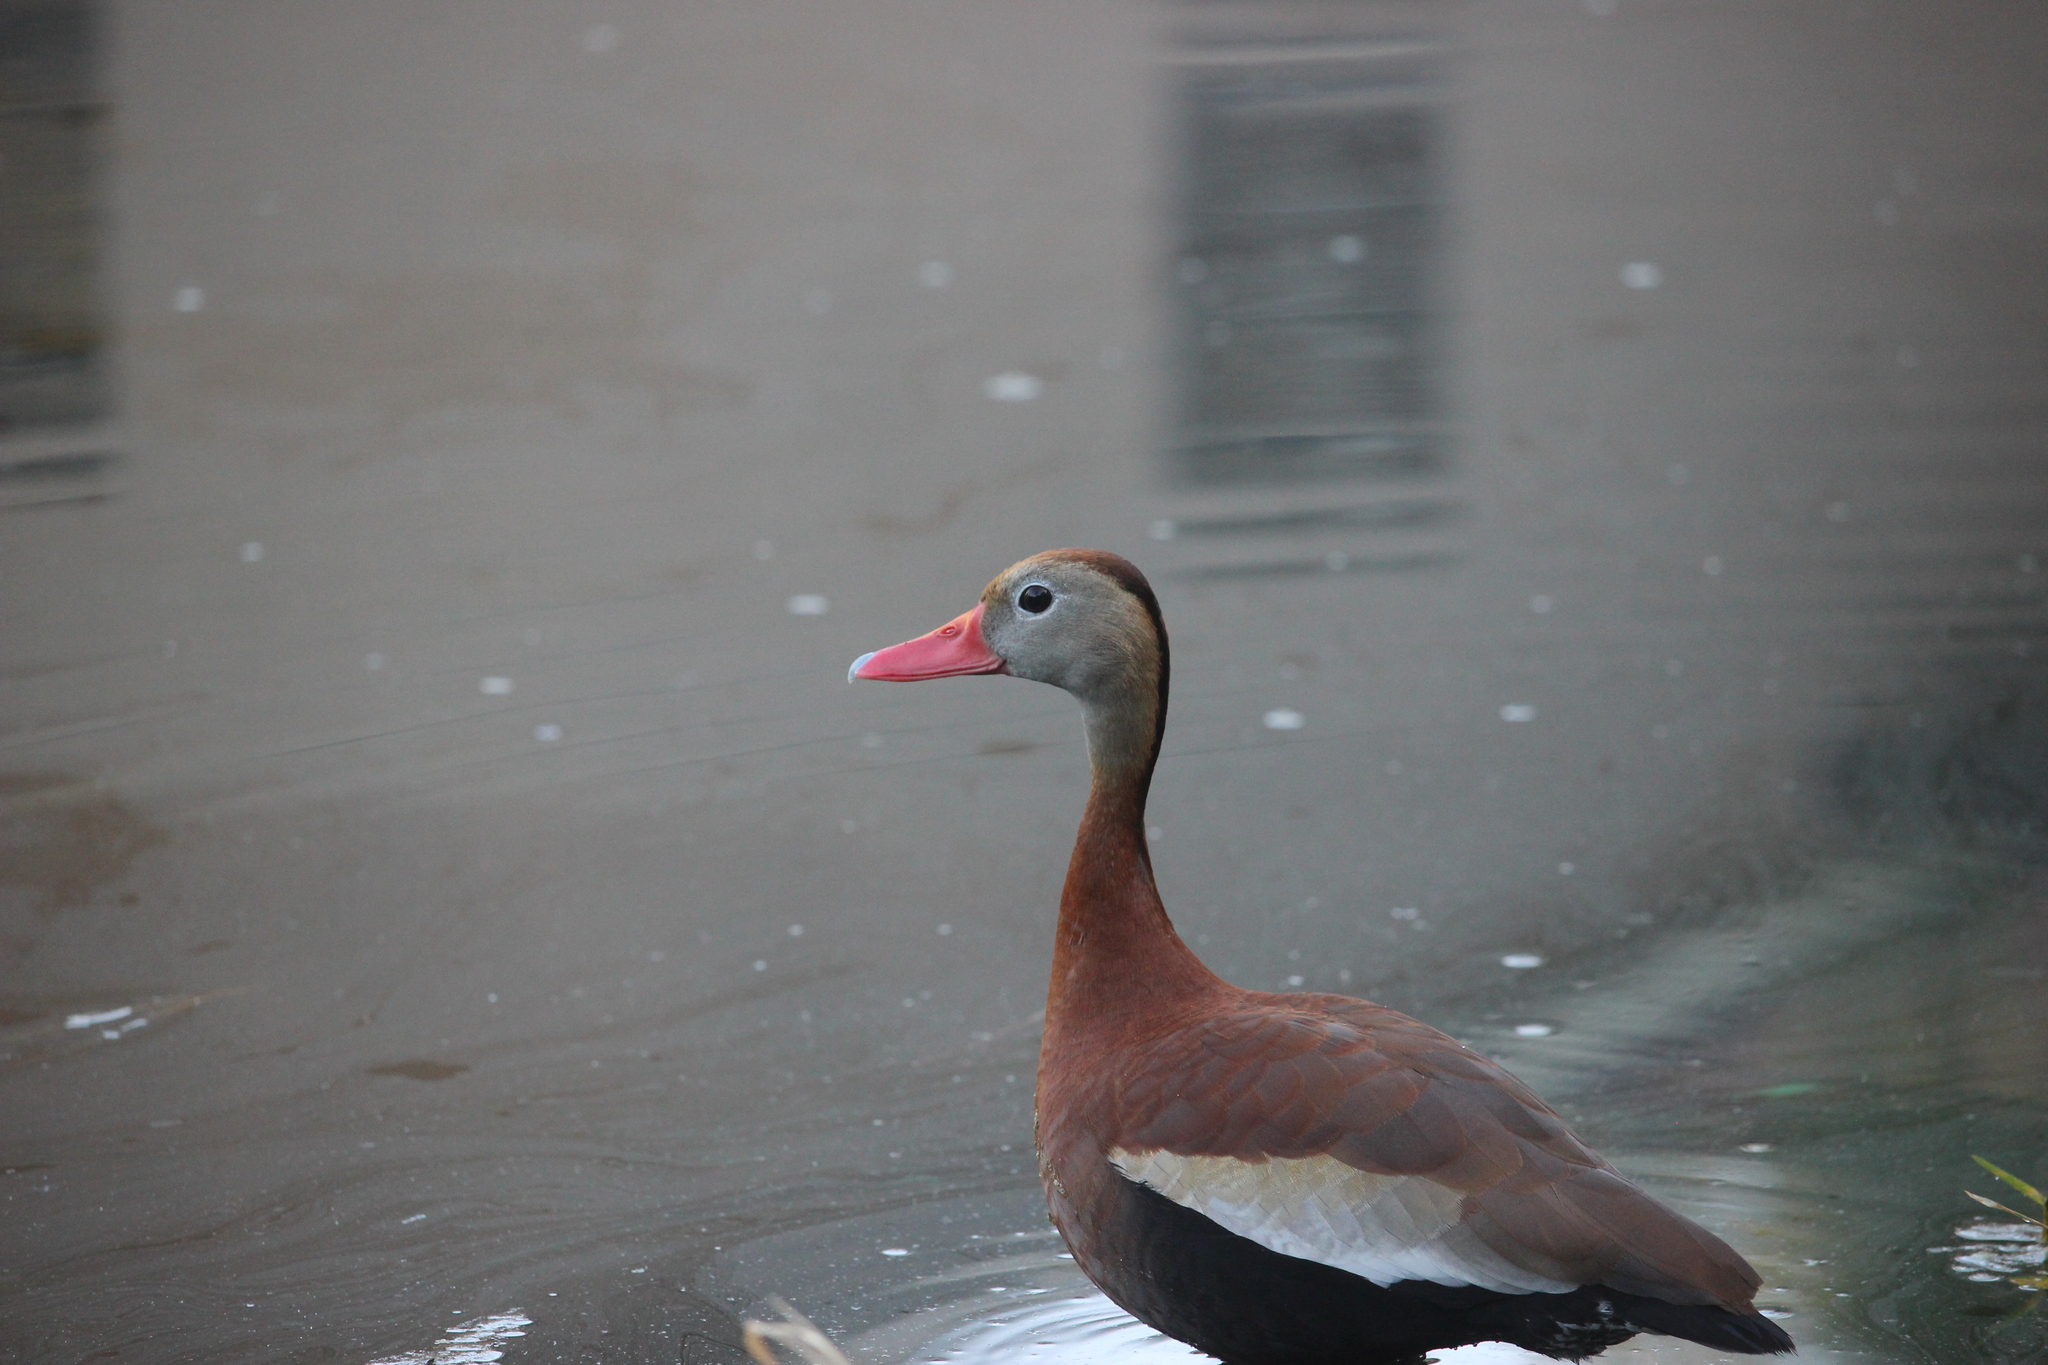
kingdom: Animalia
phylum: Chordata
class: Aves
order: Anseriformes
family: Anatidae
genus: Dendrocygna
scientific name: Dendrocygna autumnalis
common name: Black-bellied whistling duck
